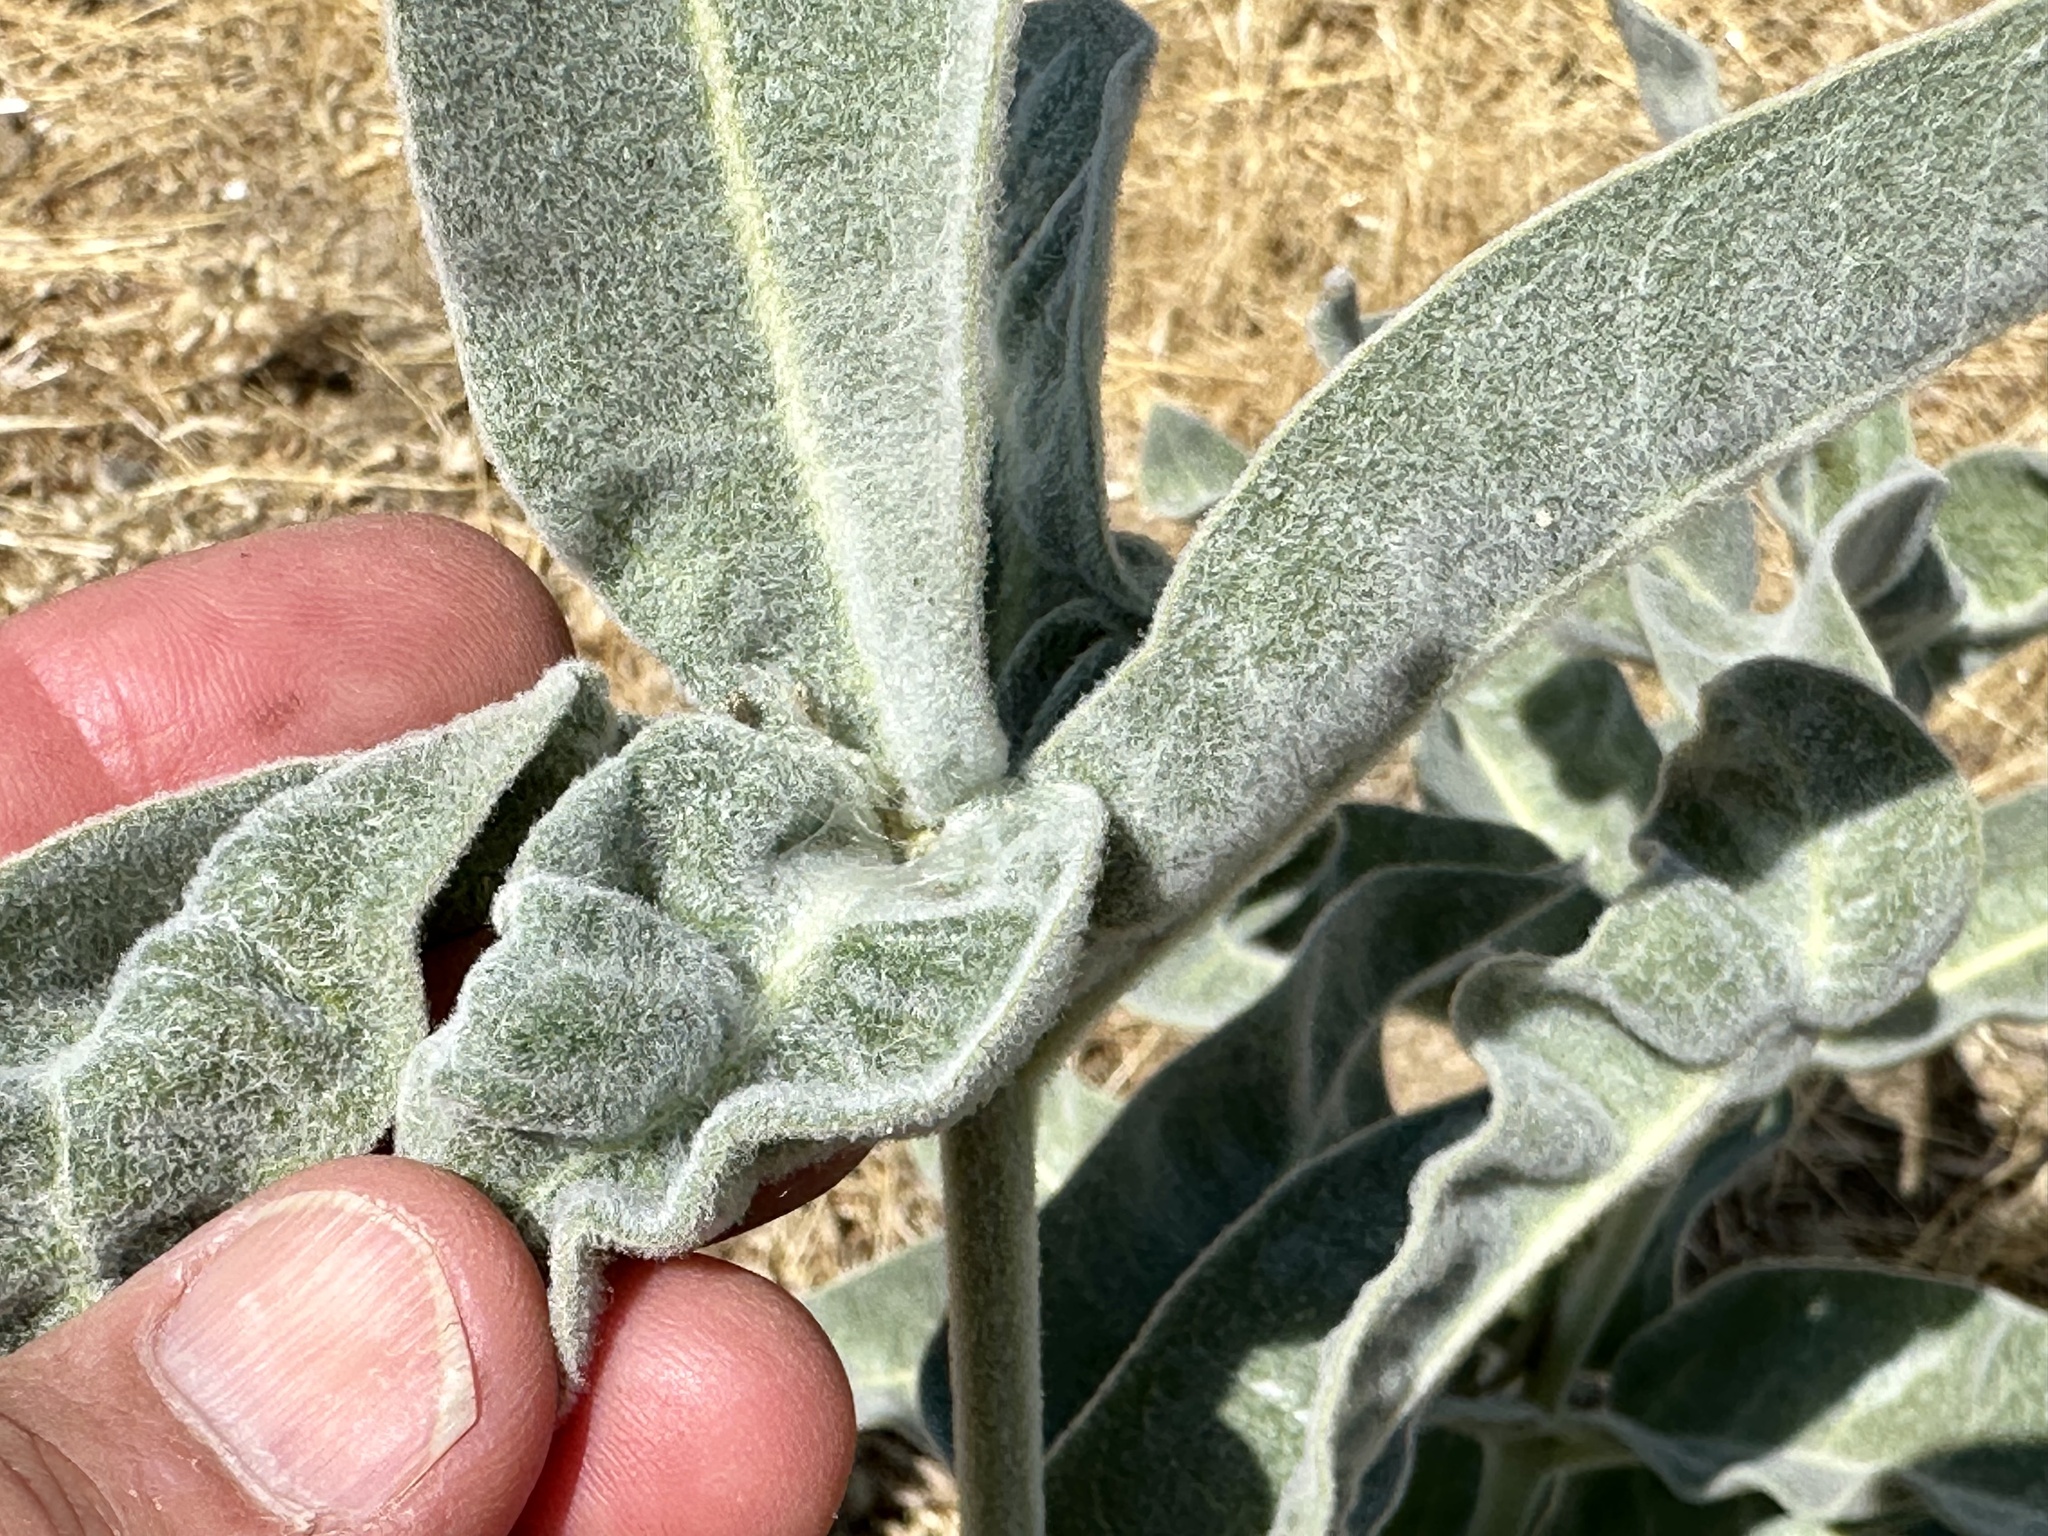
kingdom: Plantae
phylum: Tracheophyta
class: Magnoliopsida
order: Gentianales
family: Apocynaceae
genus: Asclepias
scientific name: Asclepias eriocarpa
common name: Indian milkweed
